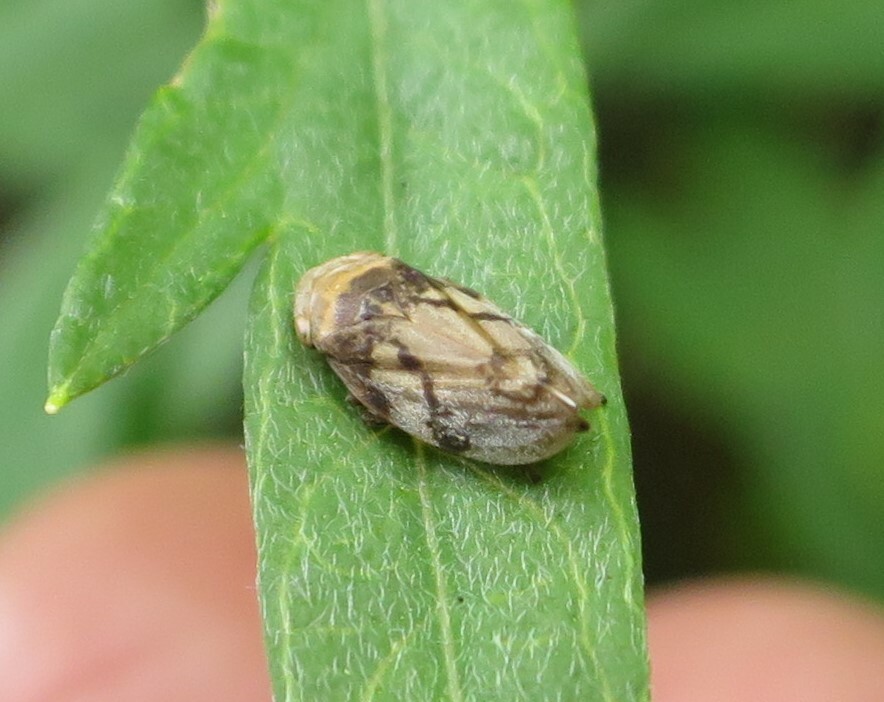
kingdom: Animalia
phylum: Arthropoda
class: Insecta
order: Hemiptera
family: Aphrophoridae
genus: Philaenus
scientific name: Philaenus spumarius
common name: Meadow spittlebug
